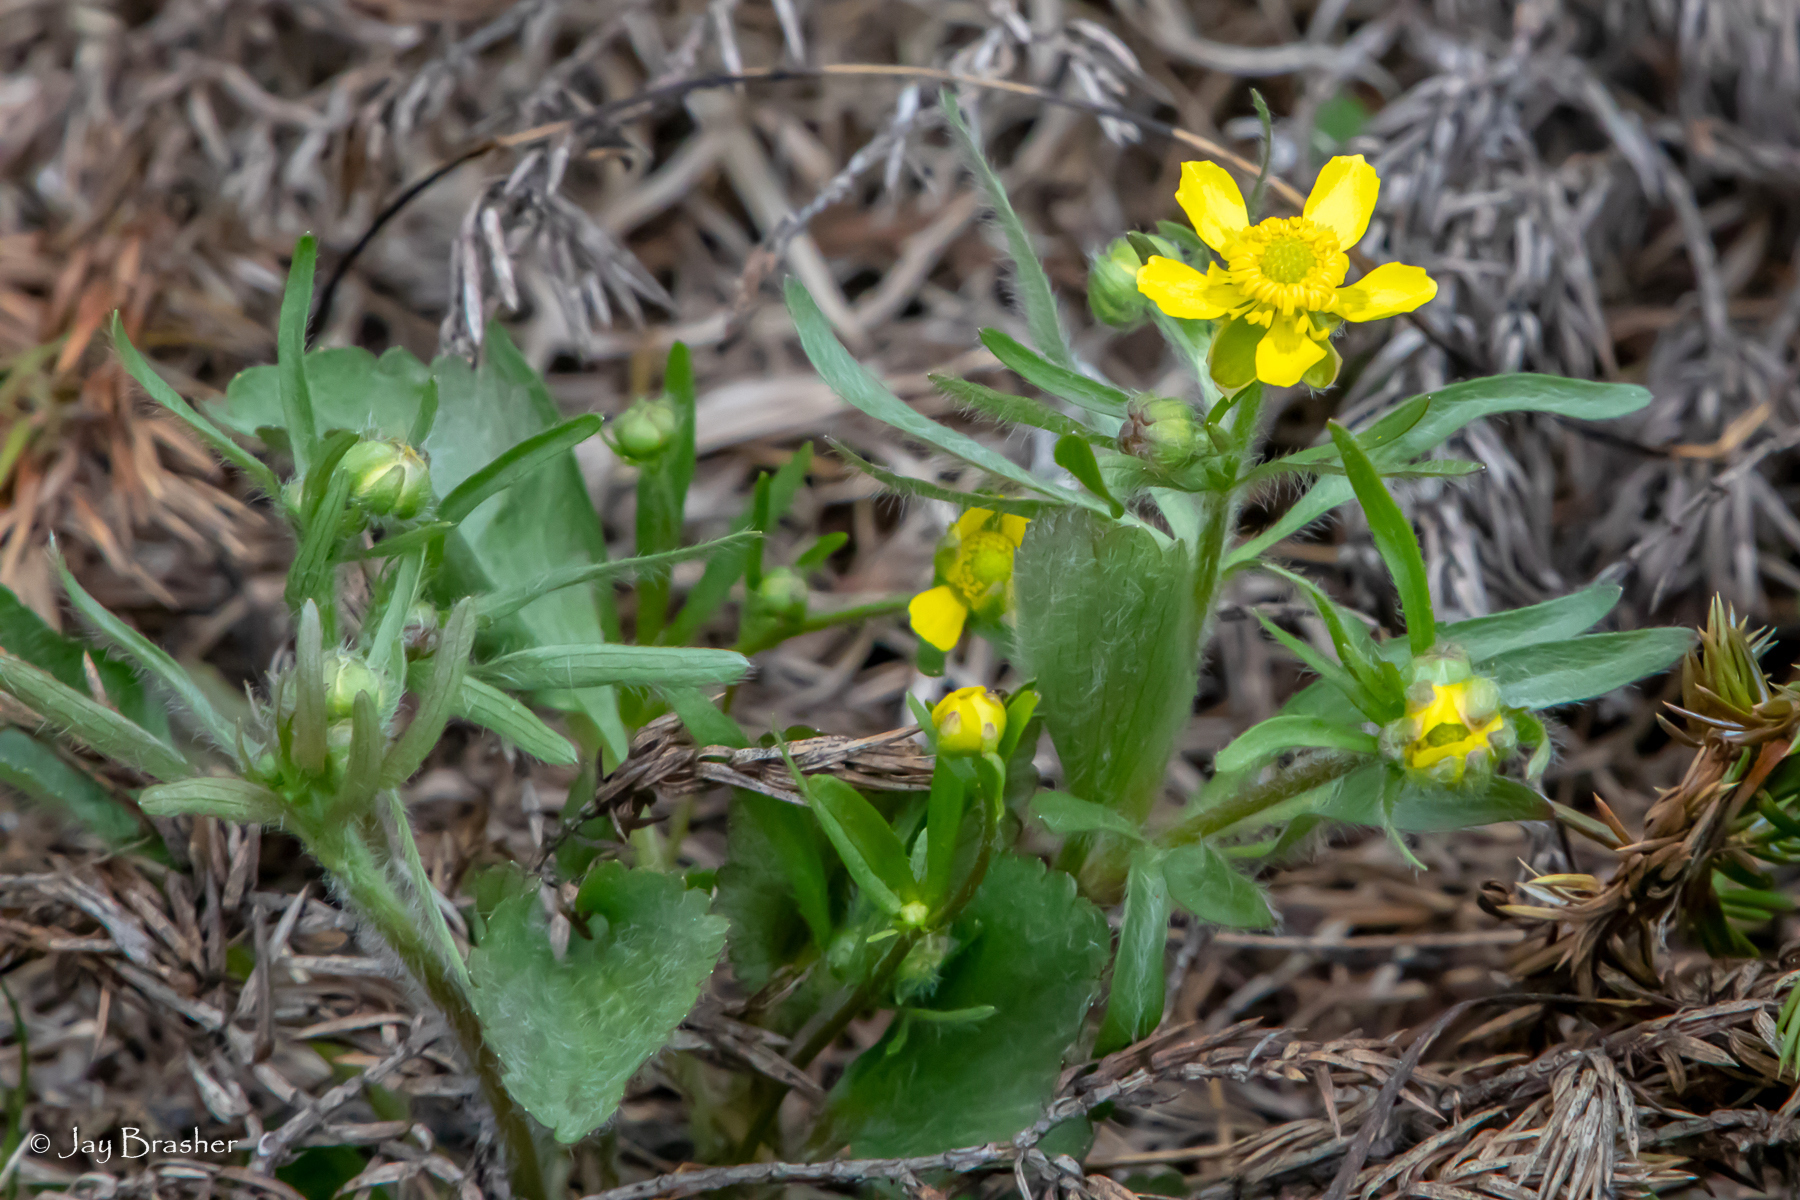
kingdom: Plantae
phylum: Tracheophyta
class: Magnoliopsida
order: Ranunculales
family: Ranunculaceae
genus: Ranunculus
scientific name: Ranunculus rhomboideus
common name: Prairie buttercup
